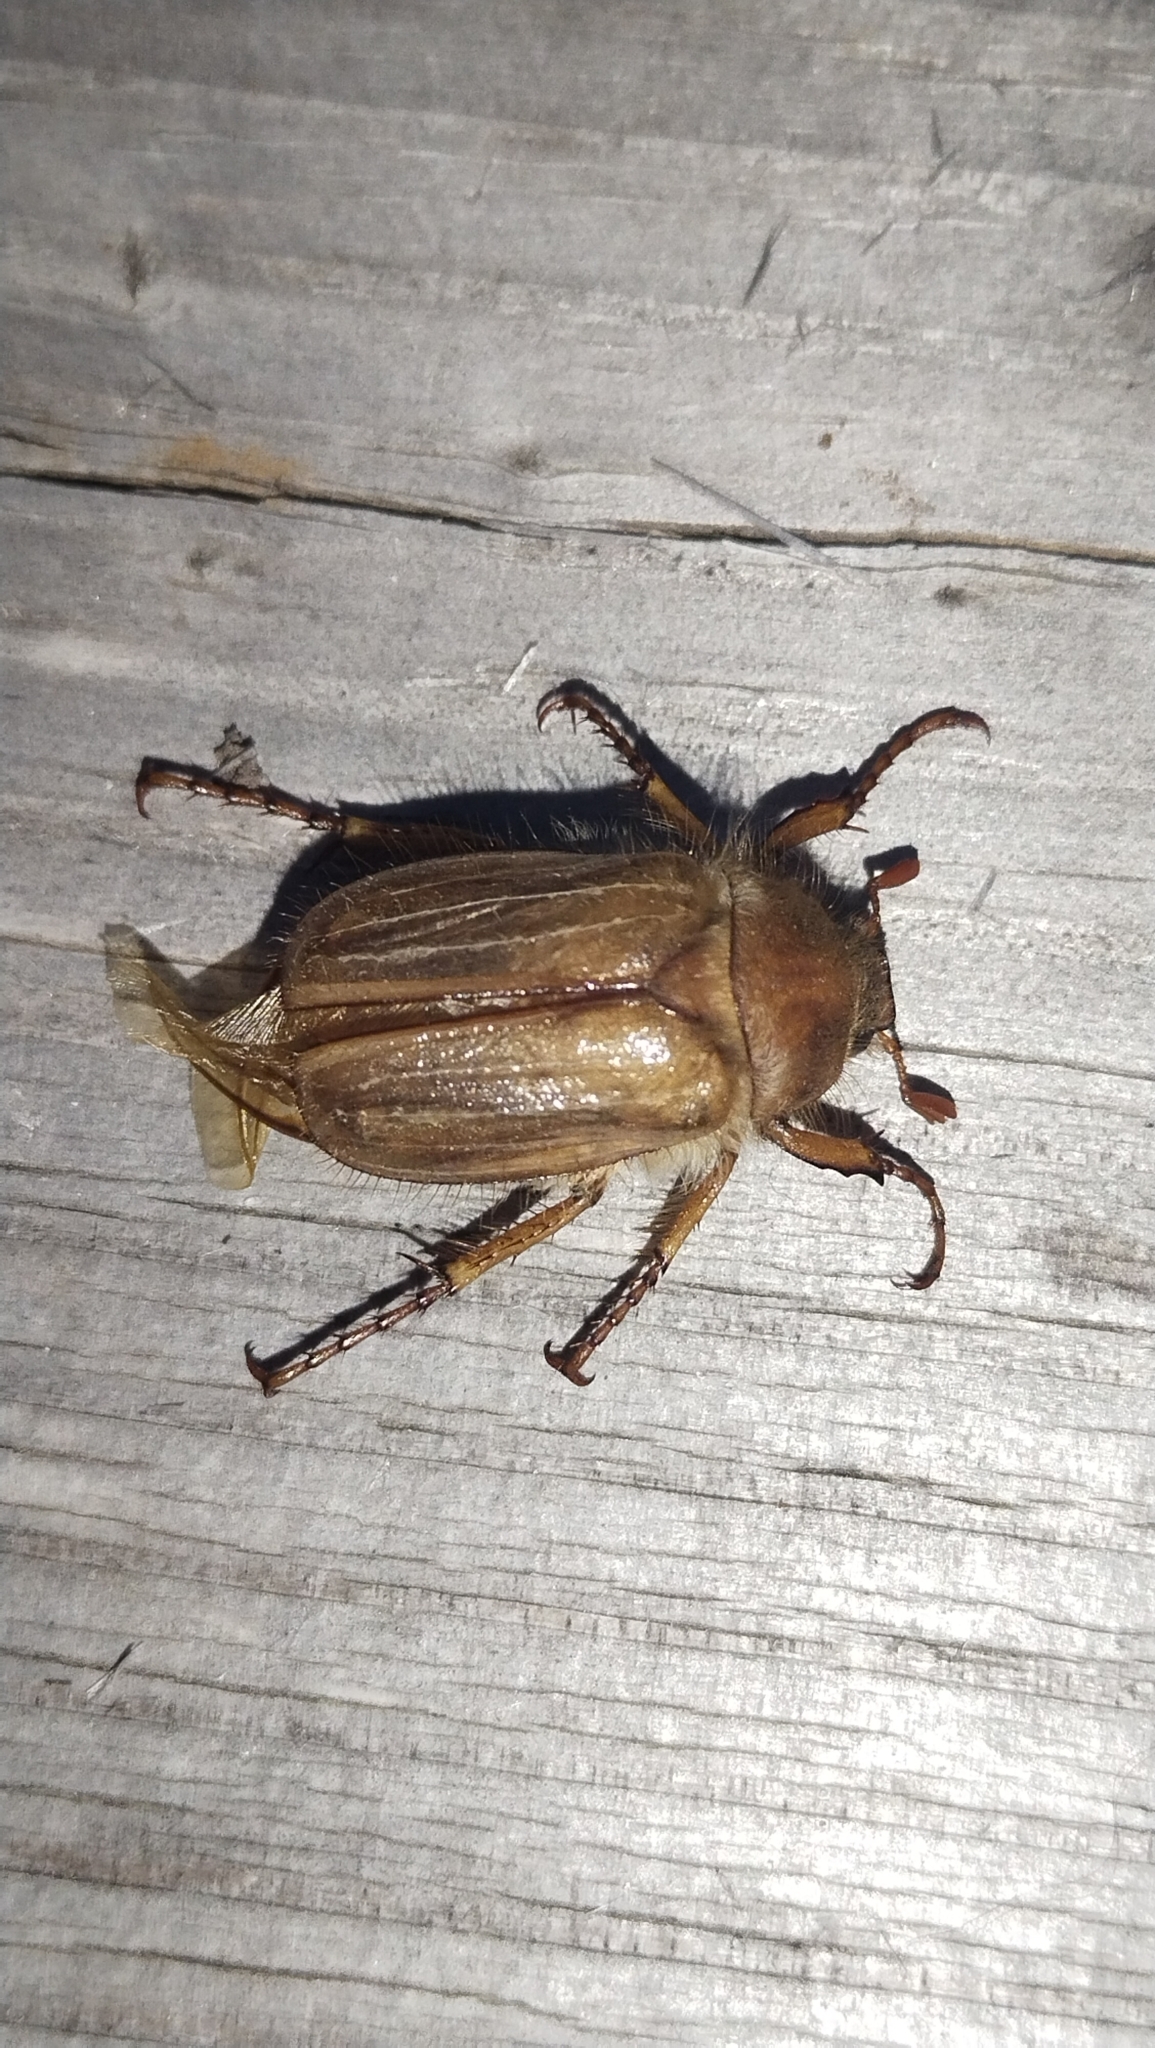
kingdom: Animalia
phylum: Arthropoda
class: Insecta
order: Coleoptera
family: Scarabaeidae
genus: Amphimallon
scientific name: Amphimallon solstitiale
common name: Summer chafer
